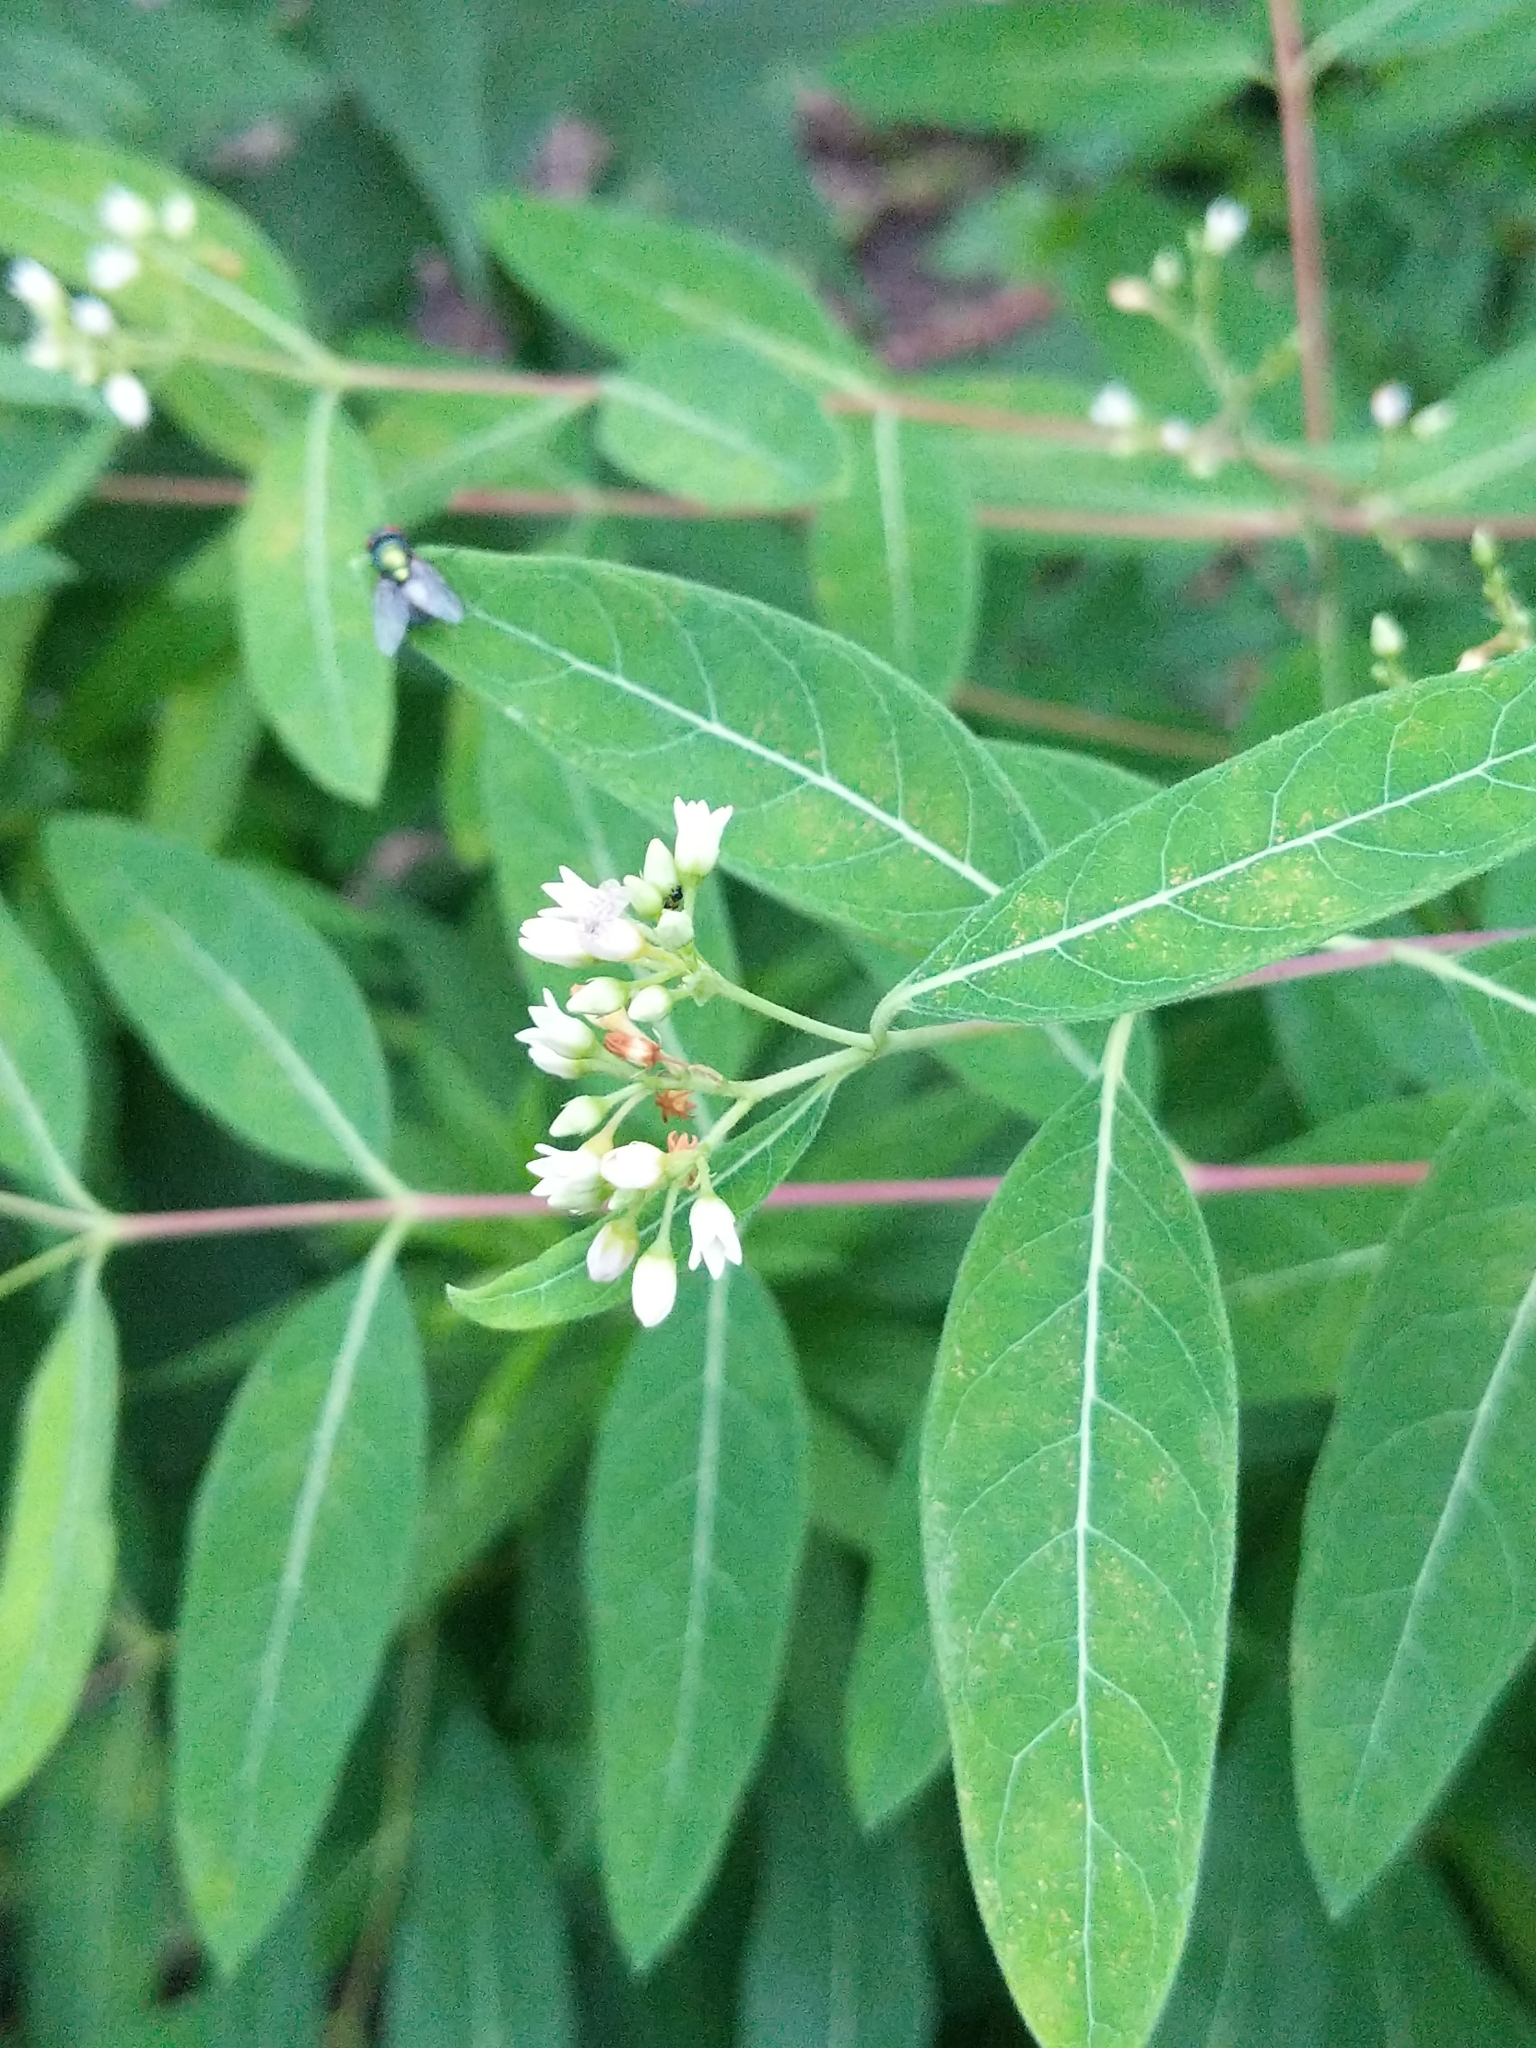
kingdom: Plantae
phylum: Tracheophyta
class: Magnoliopsida
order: Gentianales
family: Apocynaceae
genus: Apocynum
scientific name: Apocynum cannabinum
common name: Hemp dogbane
